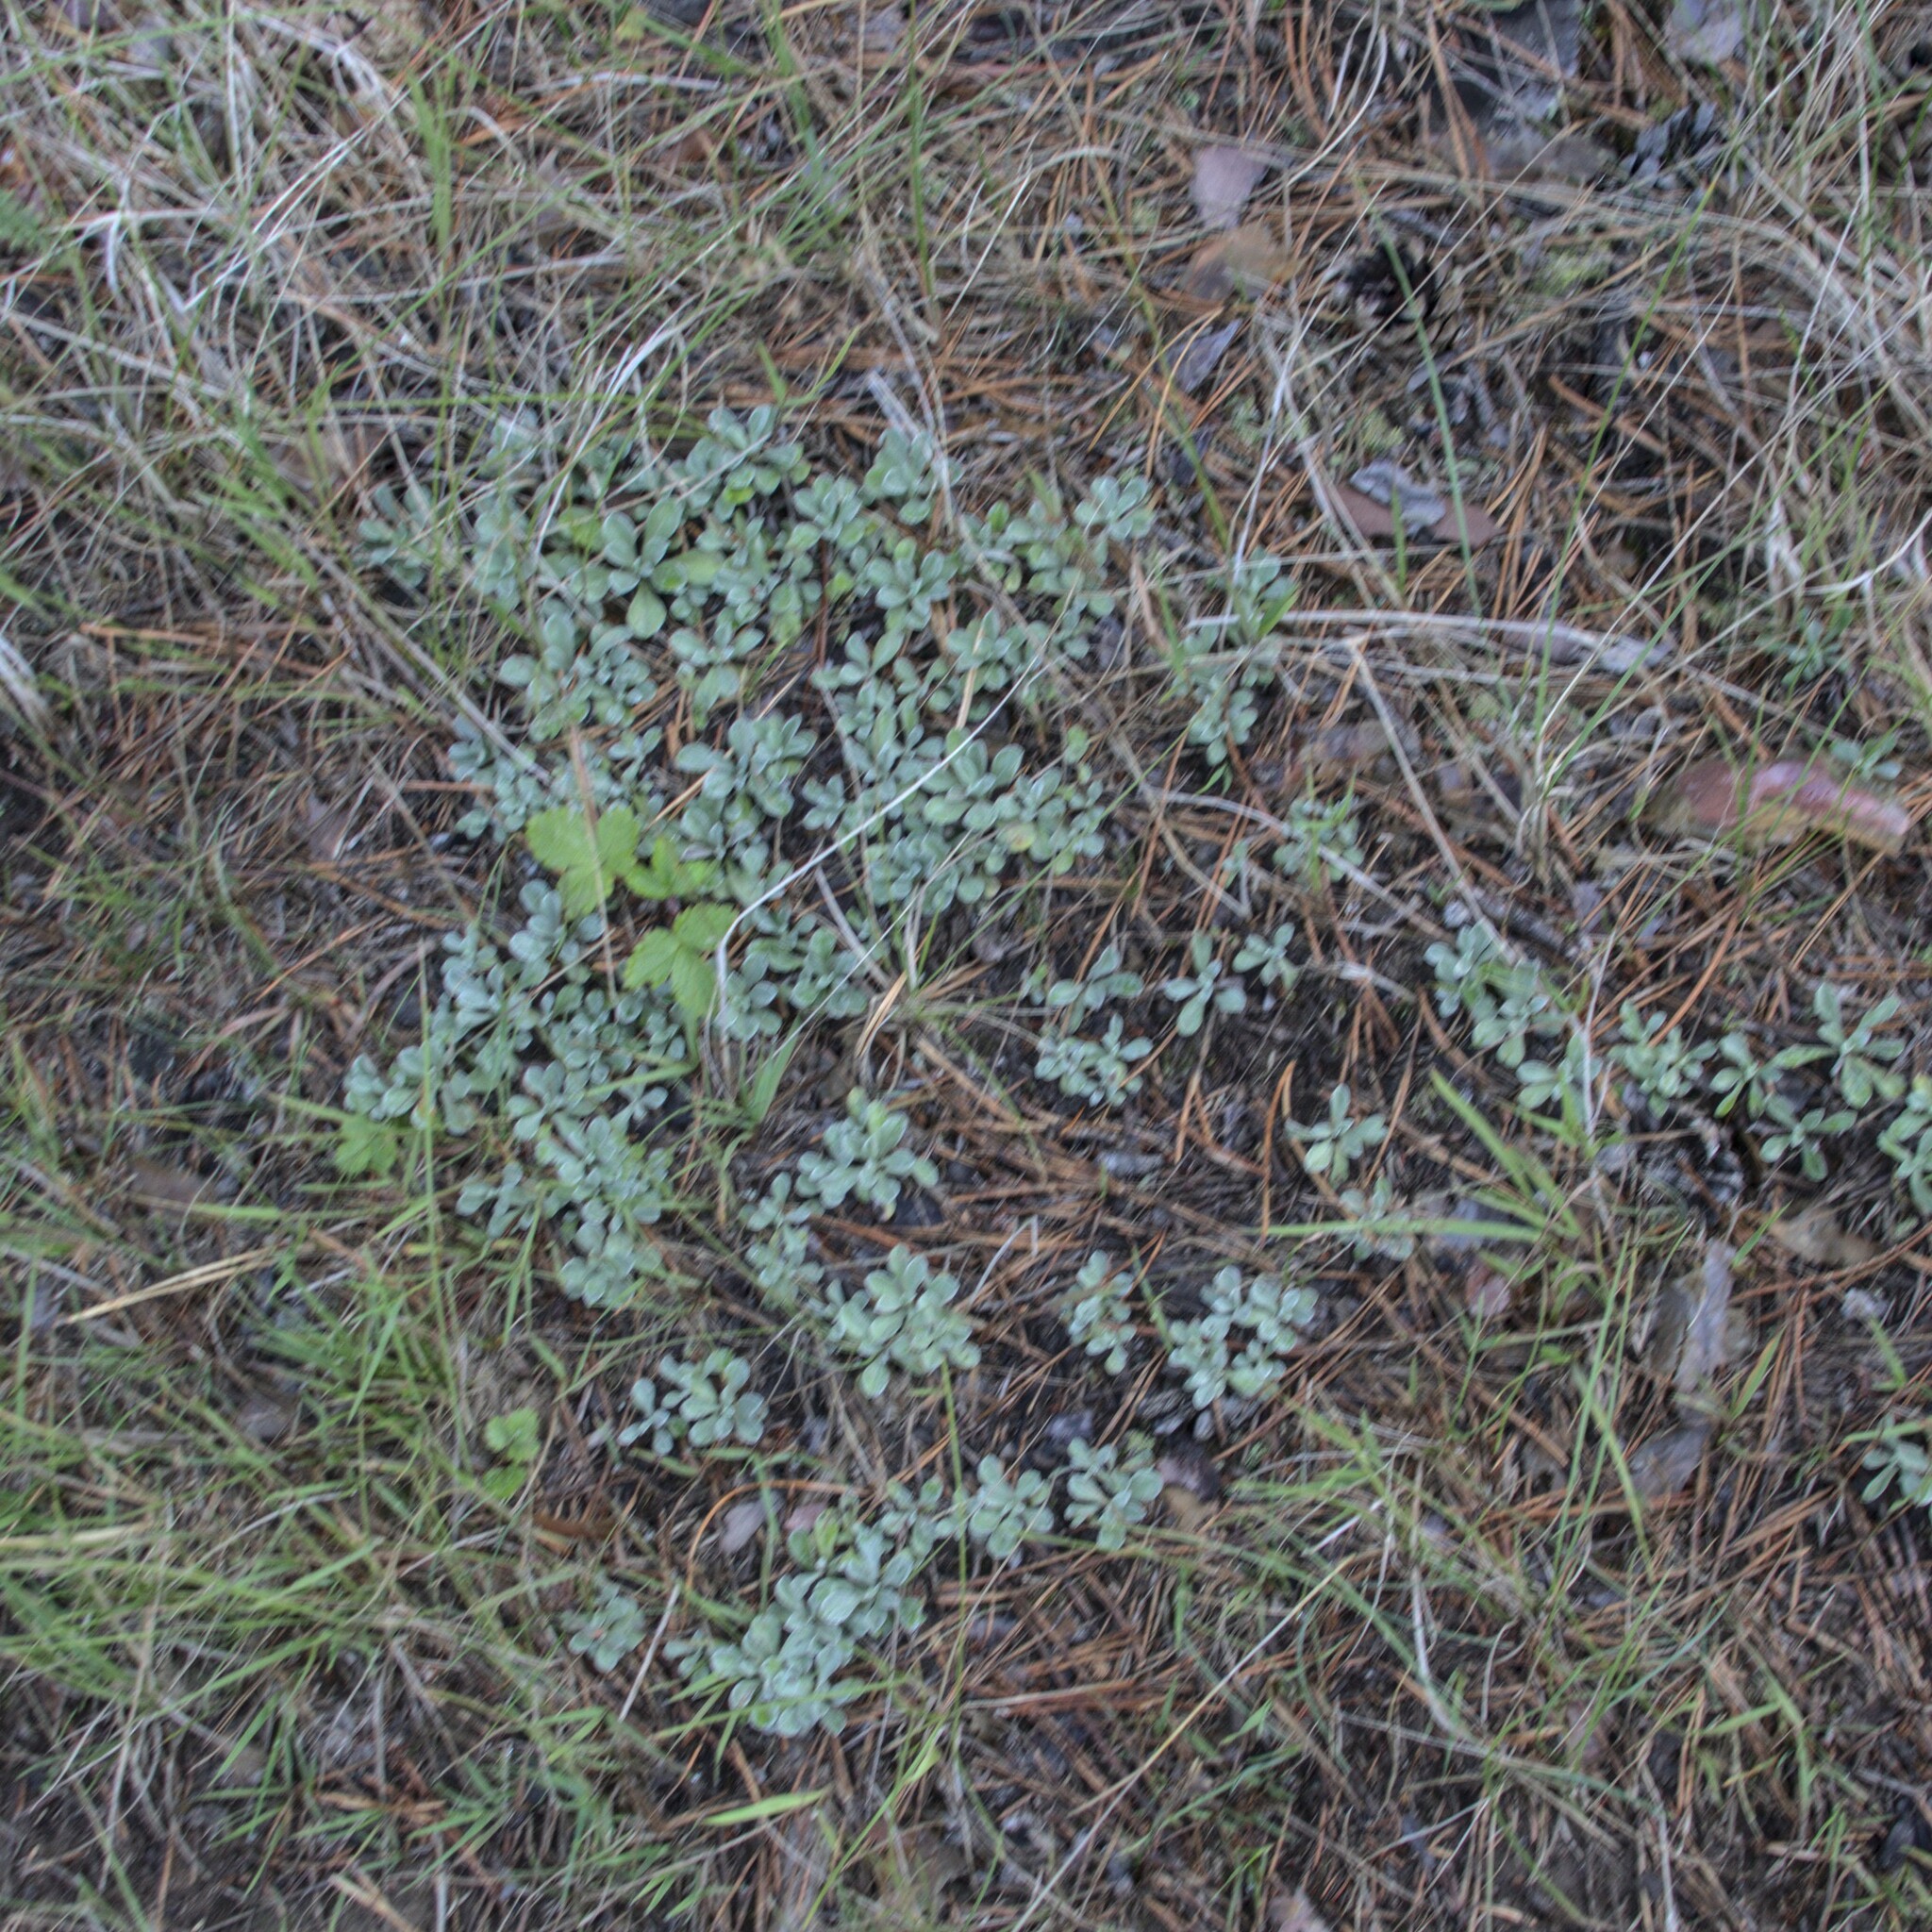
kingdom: Plantae
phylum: Tracheophyta
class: Magnoliopsida
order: Asterales
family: Asteraceae
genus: Antennaria
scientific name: Antennaria dioica
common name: Mountain everlasting
